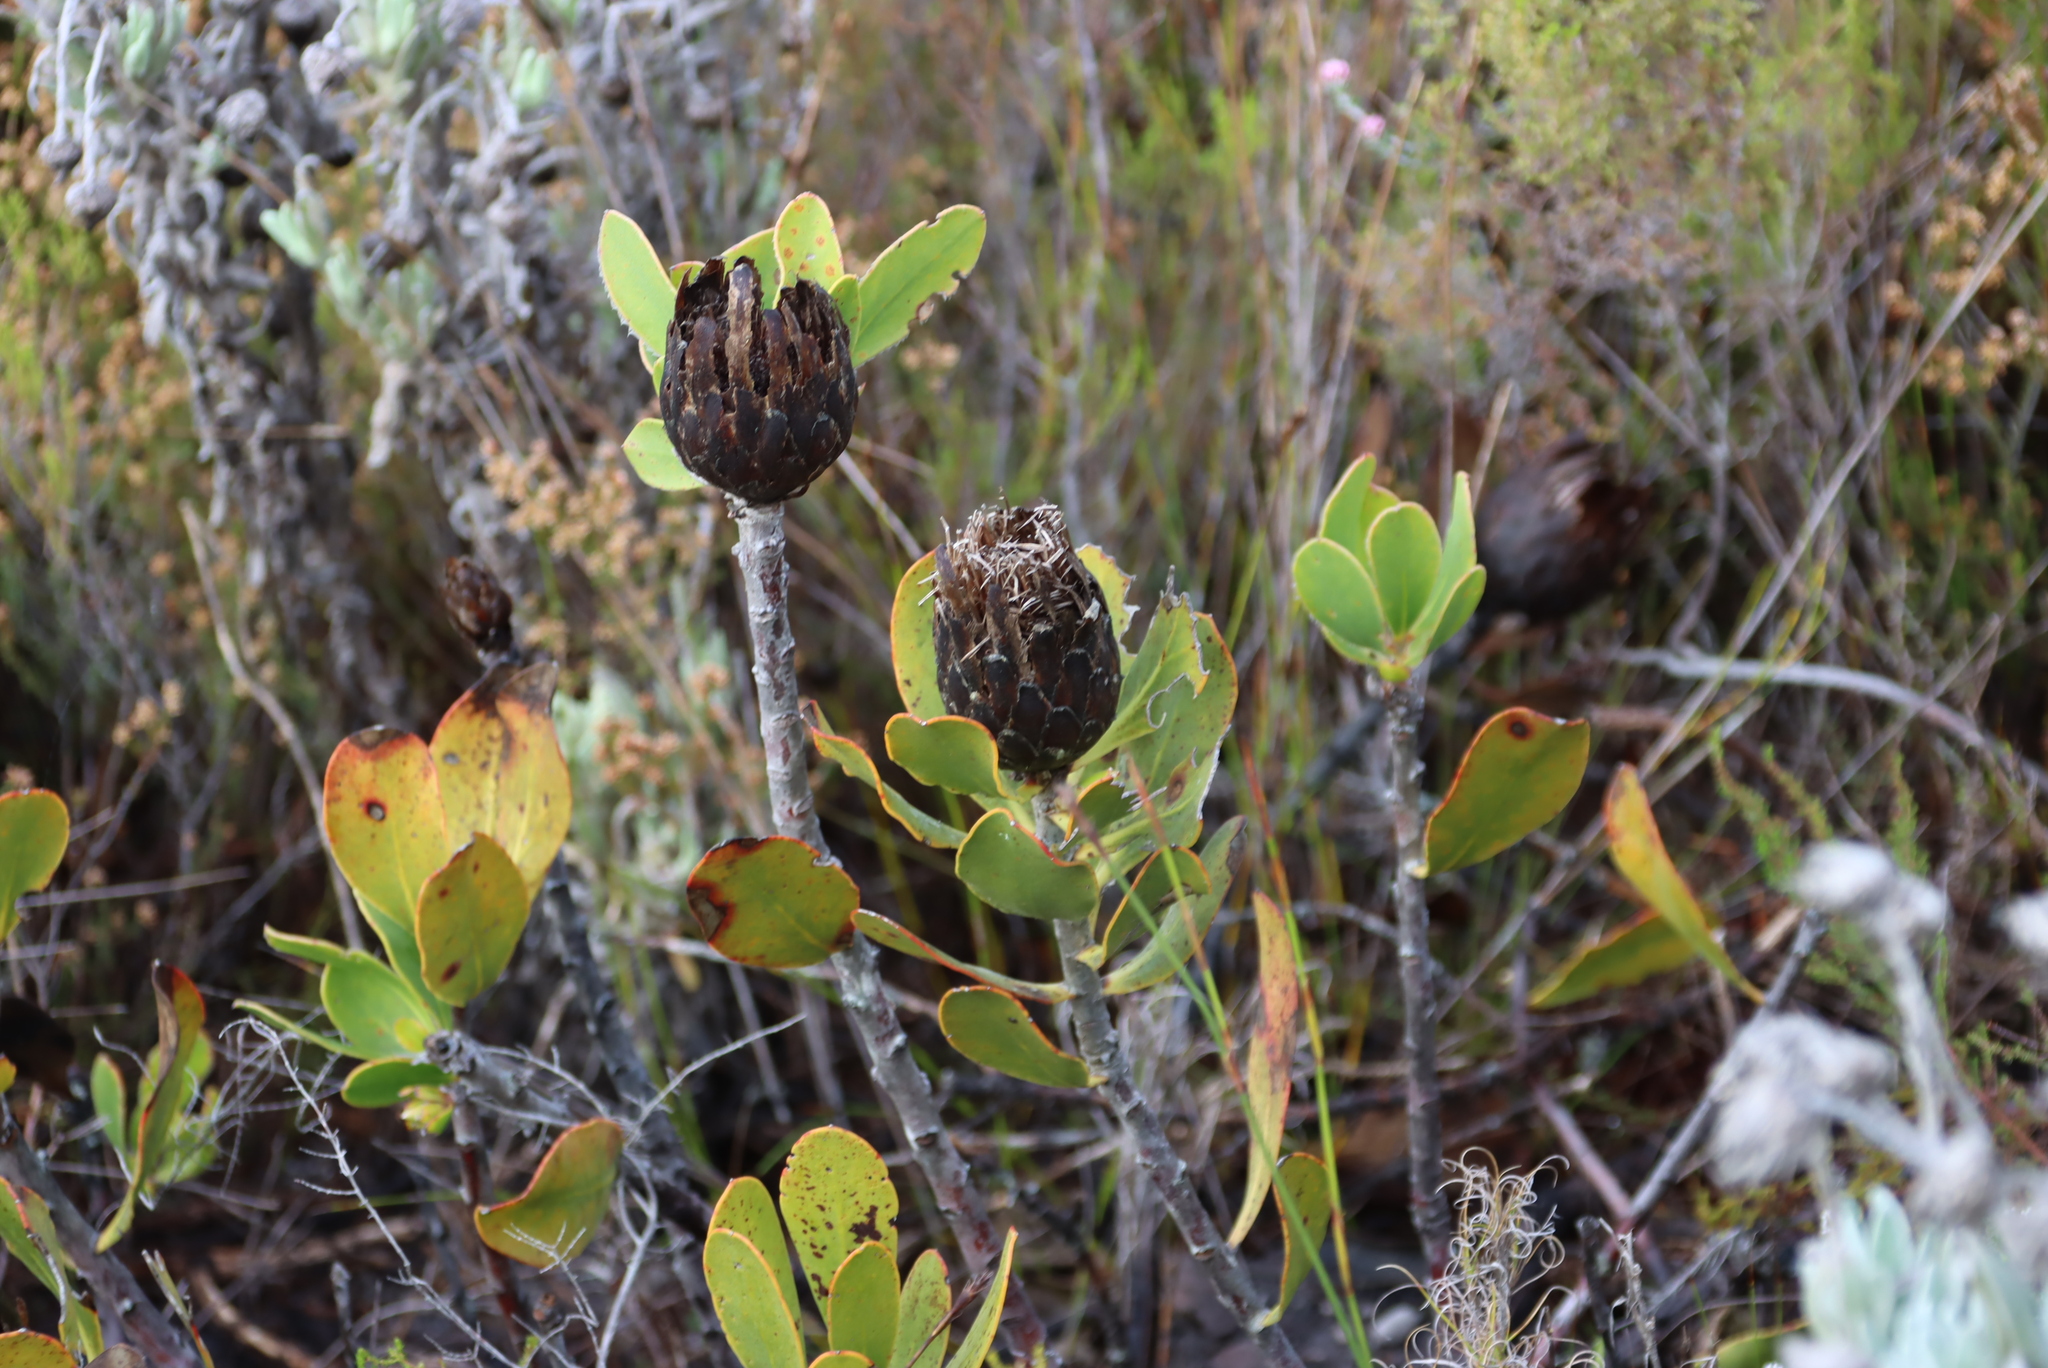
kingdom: Plantae
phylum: Tracheophyta
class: Magnoliopsida
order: Proteales
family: Proteaceae
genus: Protea
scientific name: Protea speciosa
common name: Brown-beard sugarbush
